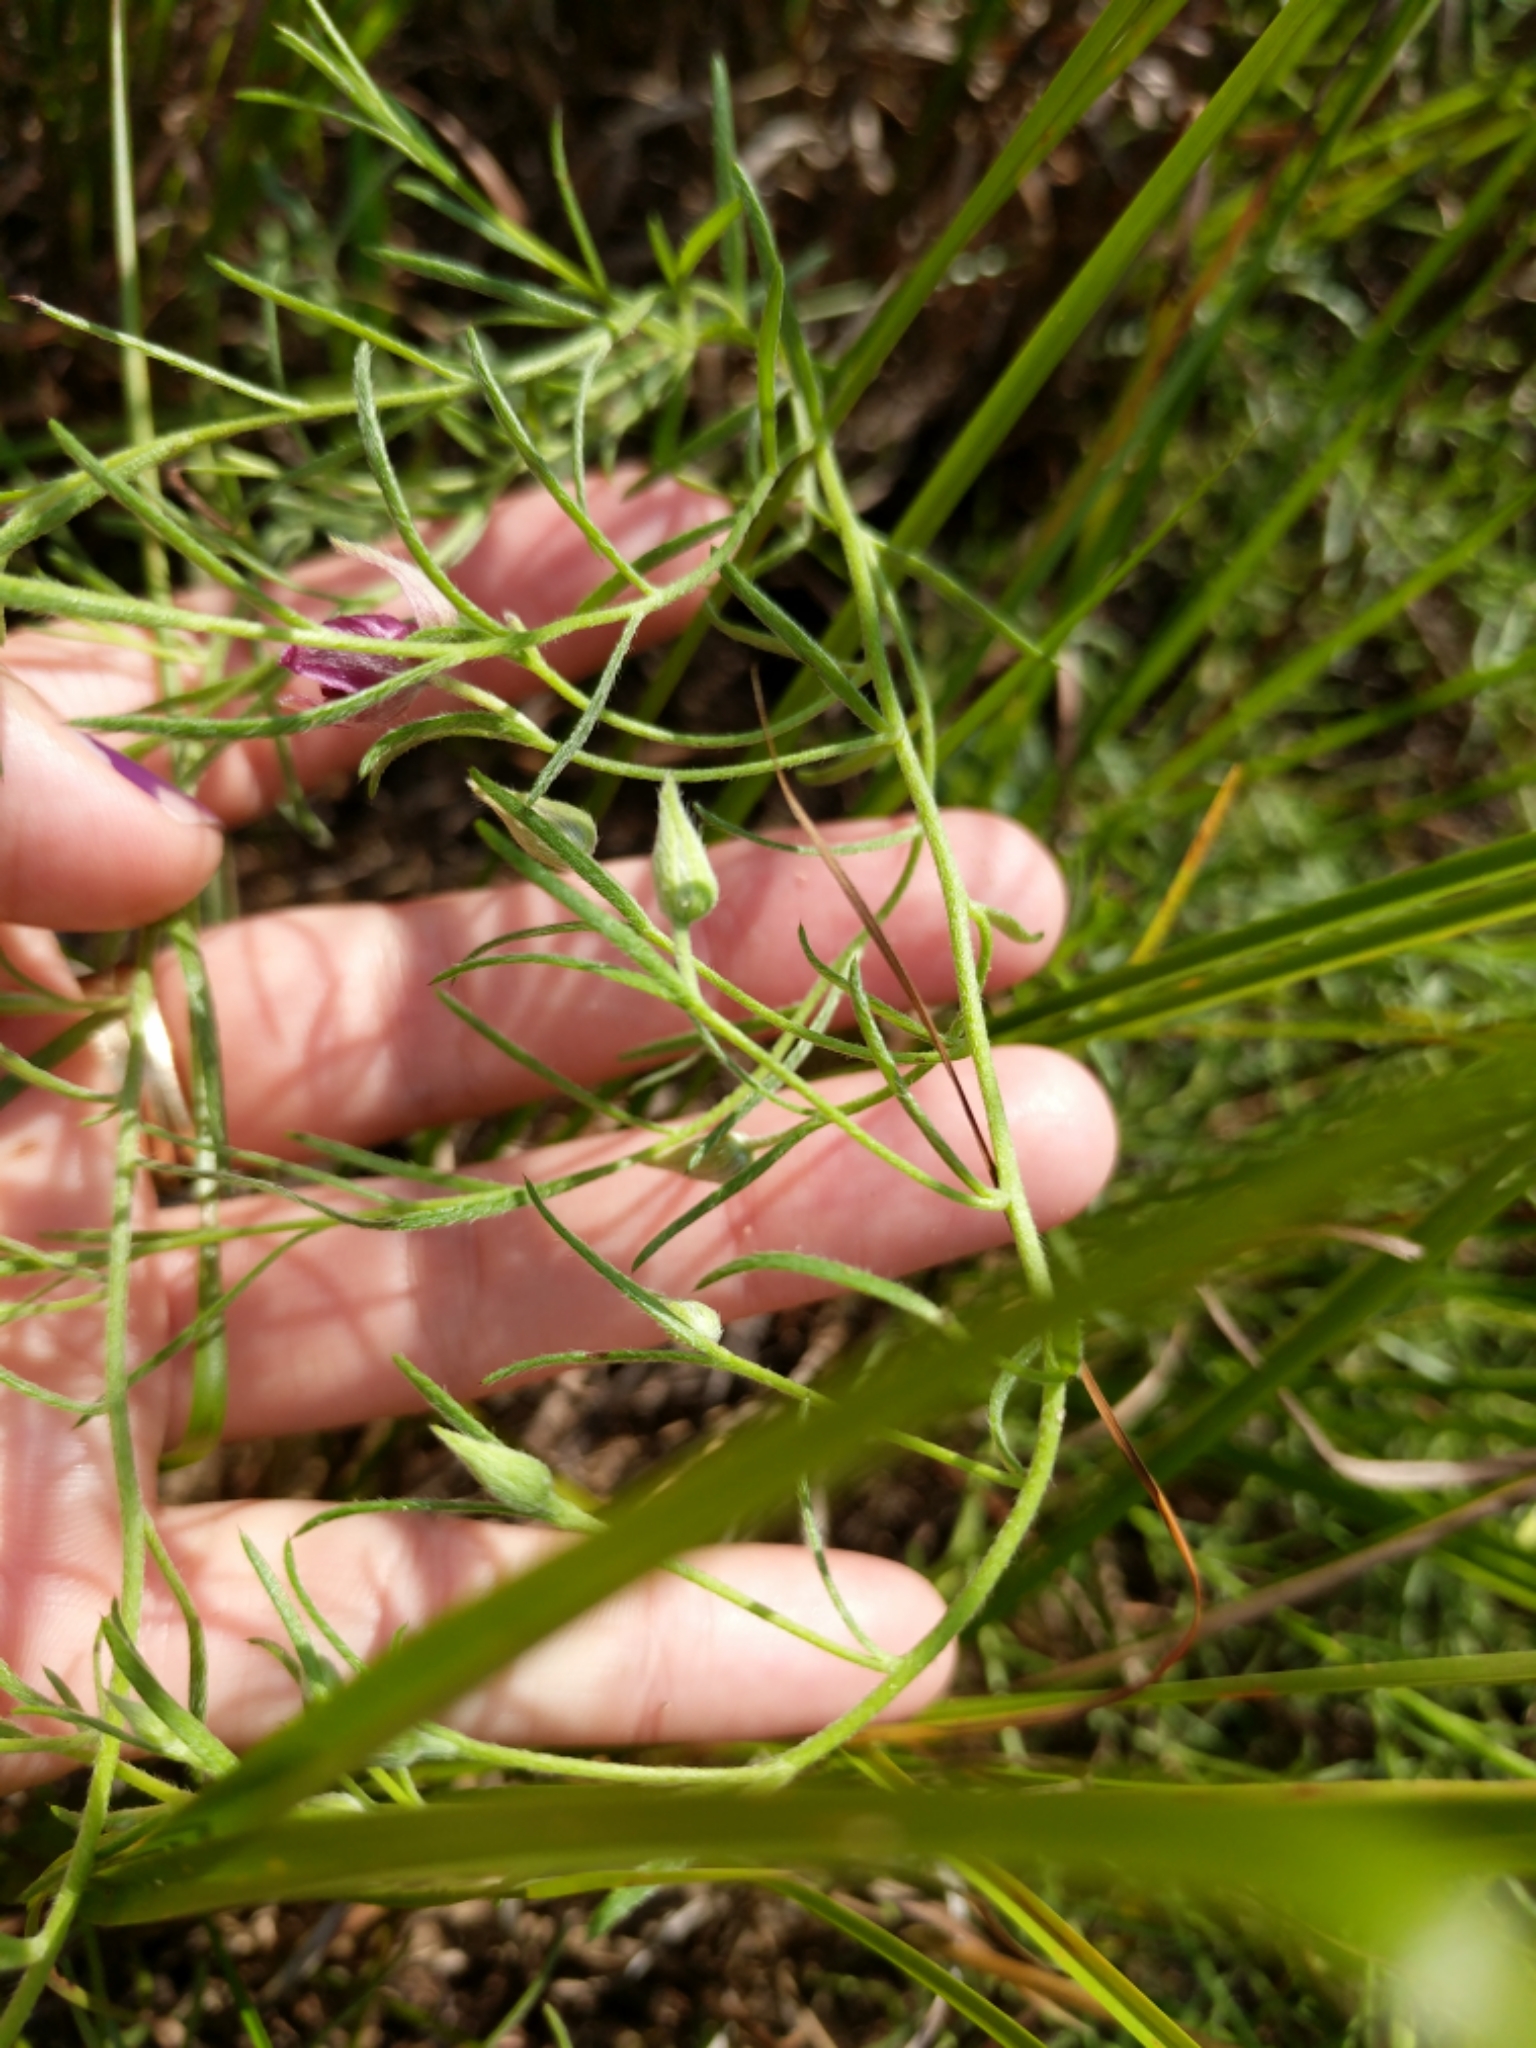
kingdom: Plantae
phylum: Tracheophyta
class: Magnoliopsida
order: Zygophyllales
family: Krameriaceae
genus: Krameria
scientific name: Krameria lanceolata
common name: Ratany
